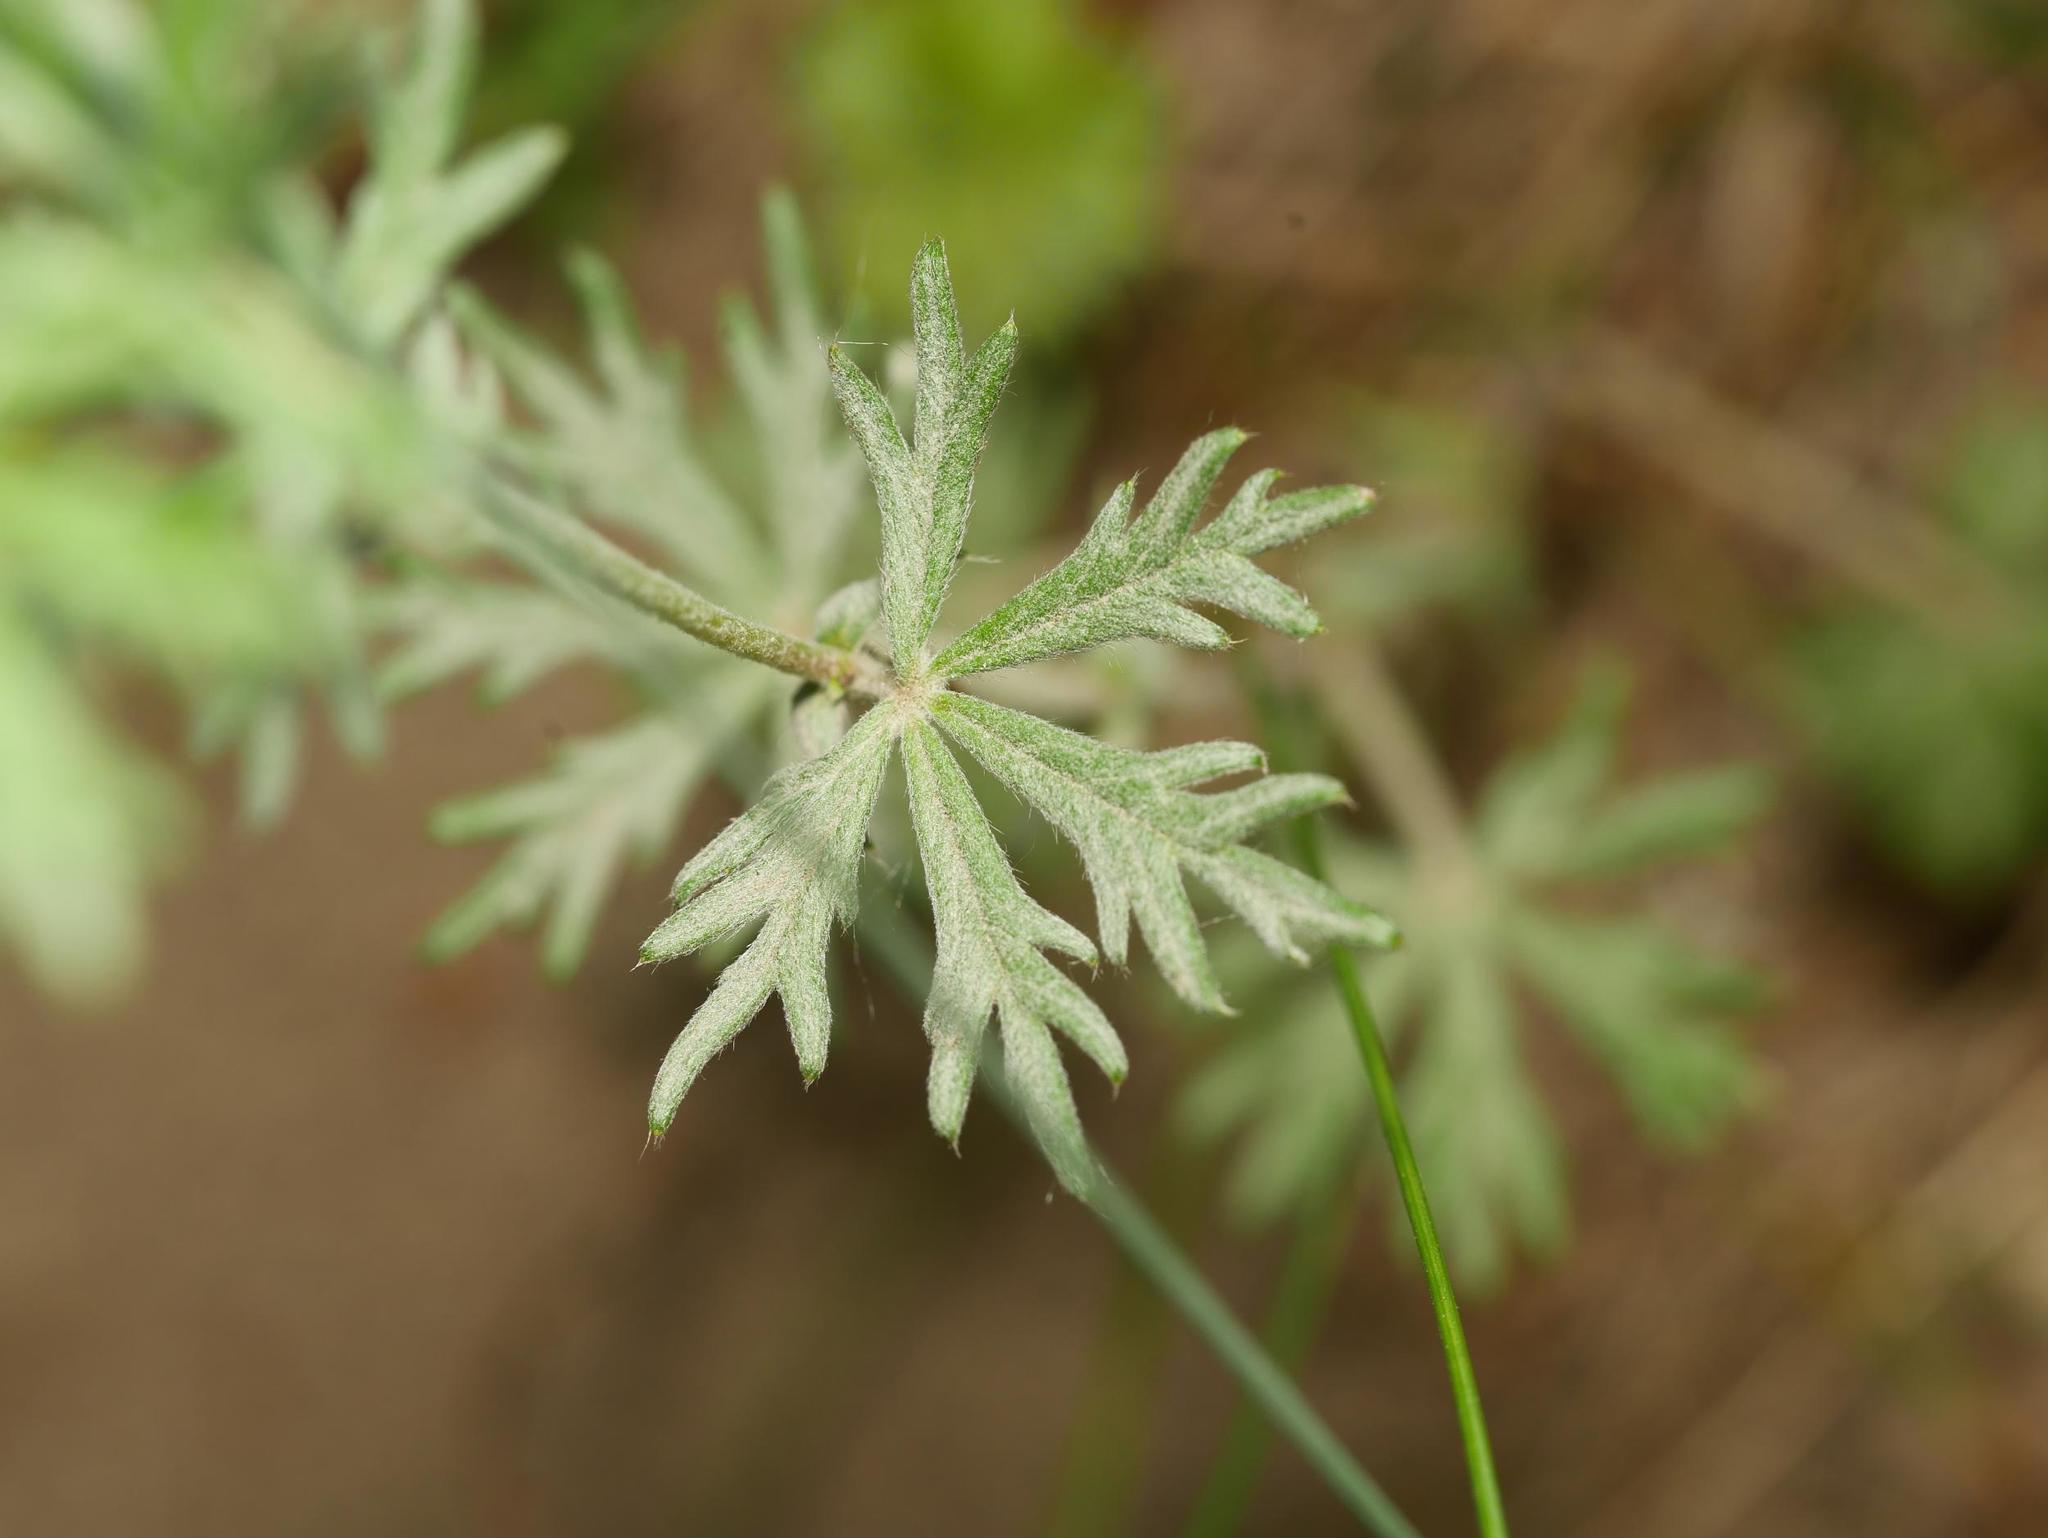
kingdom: Fungi
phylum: Ascomycota
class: Leotiomycetes
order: Helotiales
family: Erysiphaceae
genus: Podosphaera
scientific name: Podosphaera aphanis
